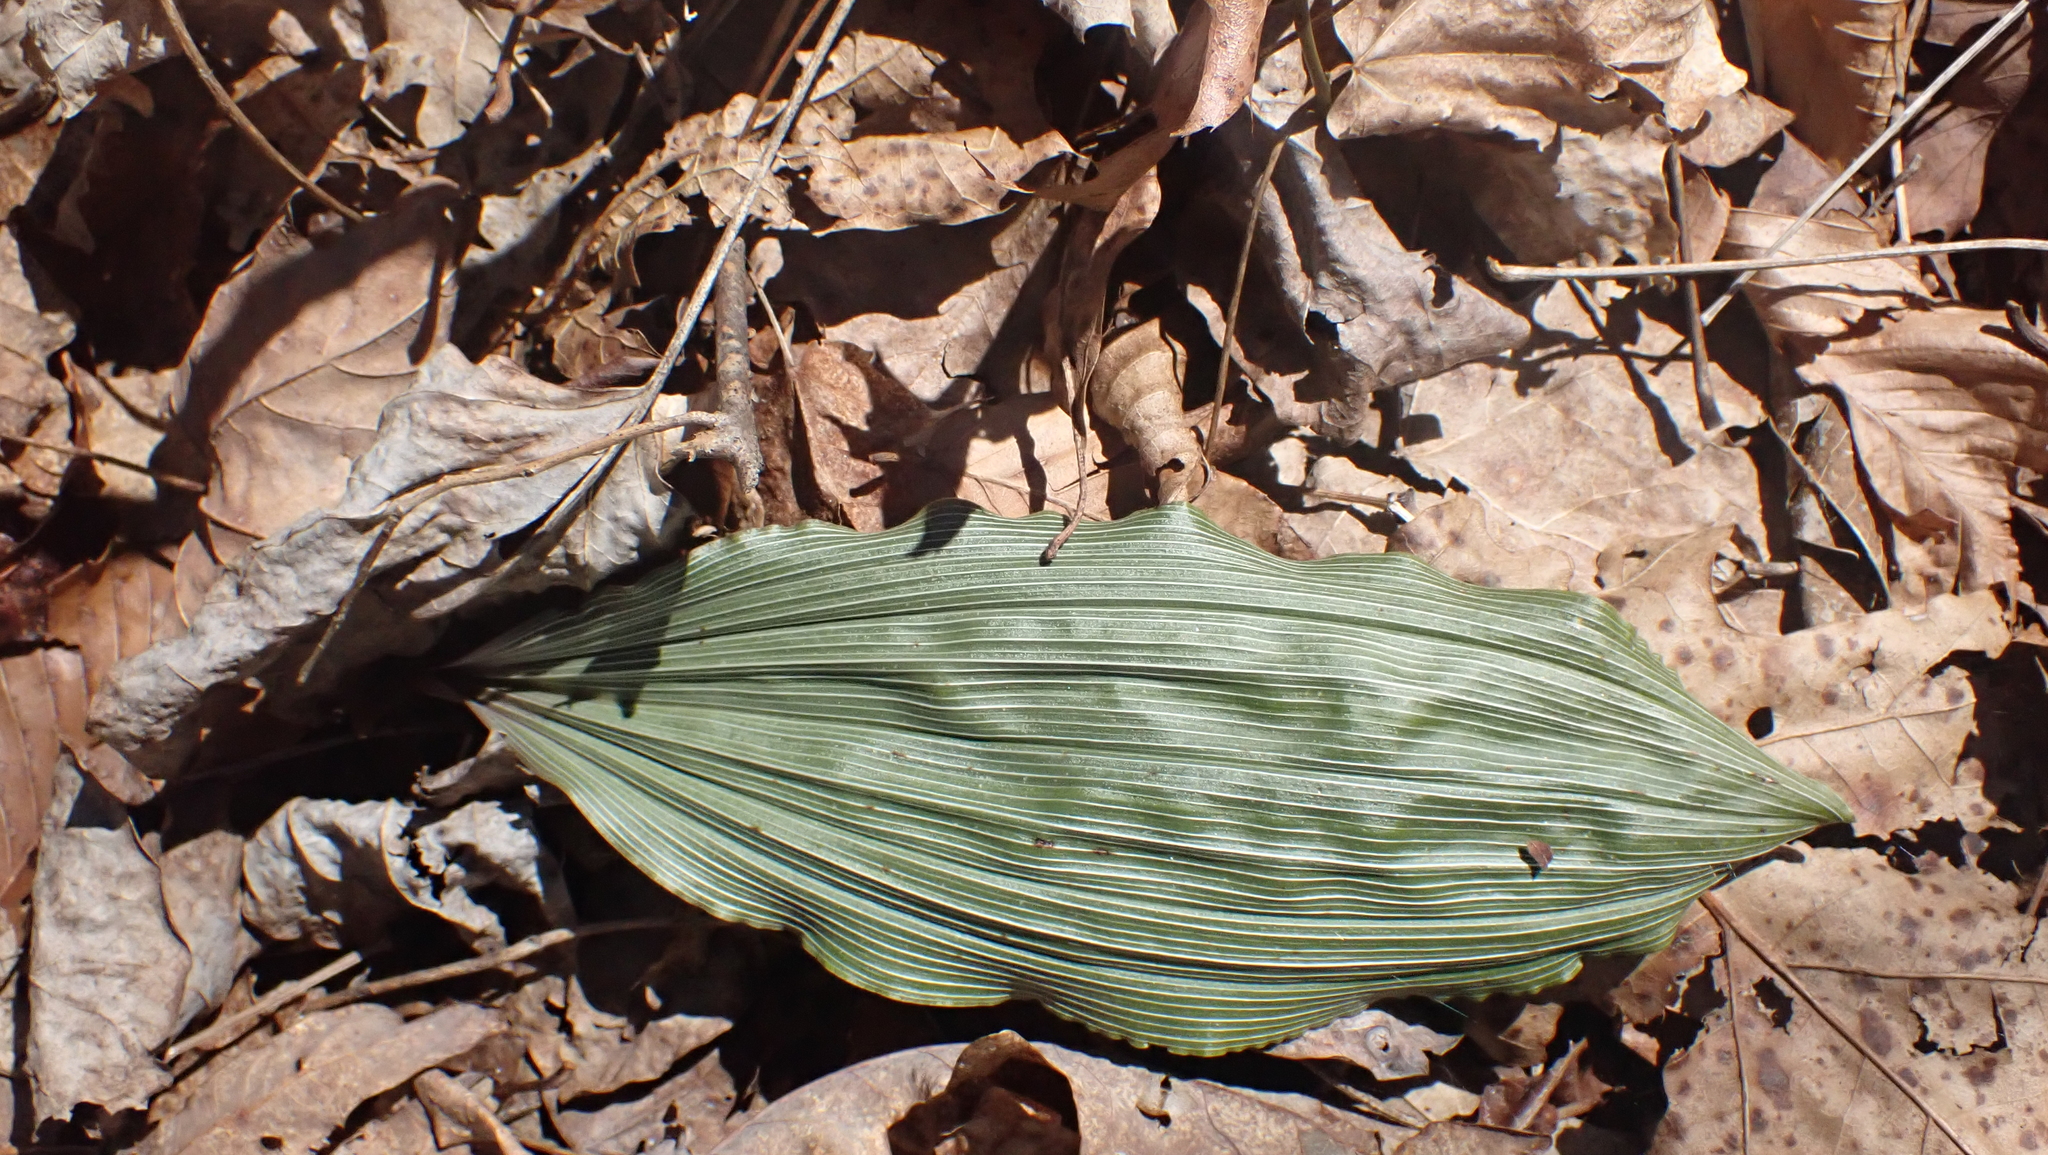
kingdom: Plantae
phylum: Tracheophyta
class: Liliopsida
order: Asparagales
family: Orchidaceae
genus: Aplectrum
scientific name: Aplectrum hyemale
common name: Adam-and-eve
